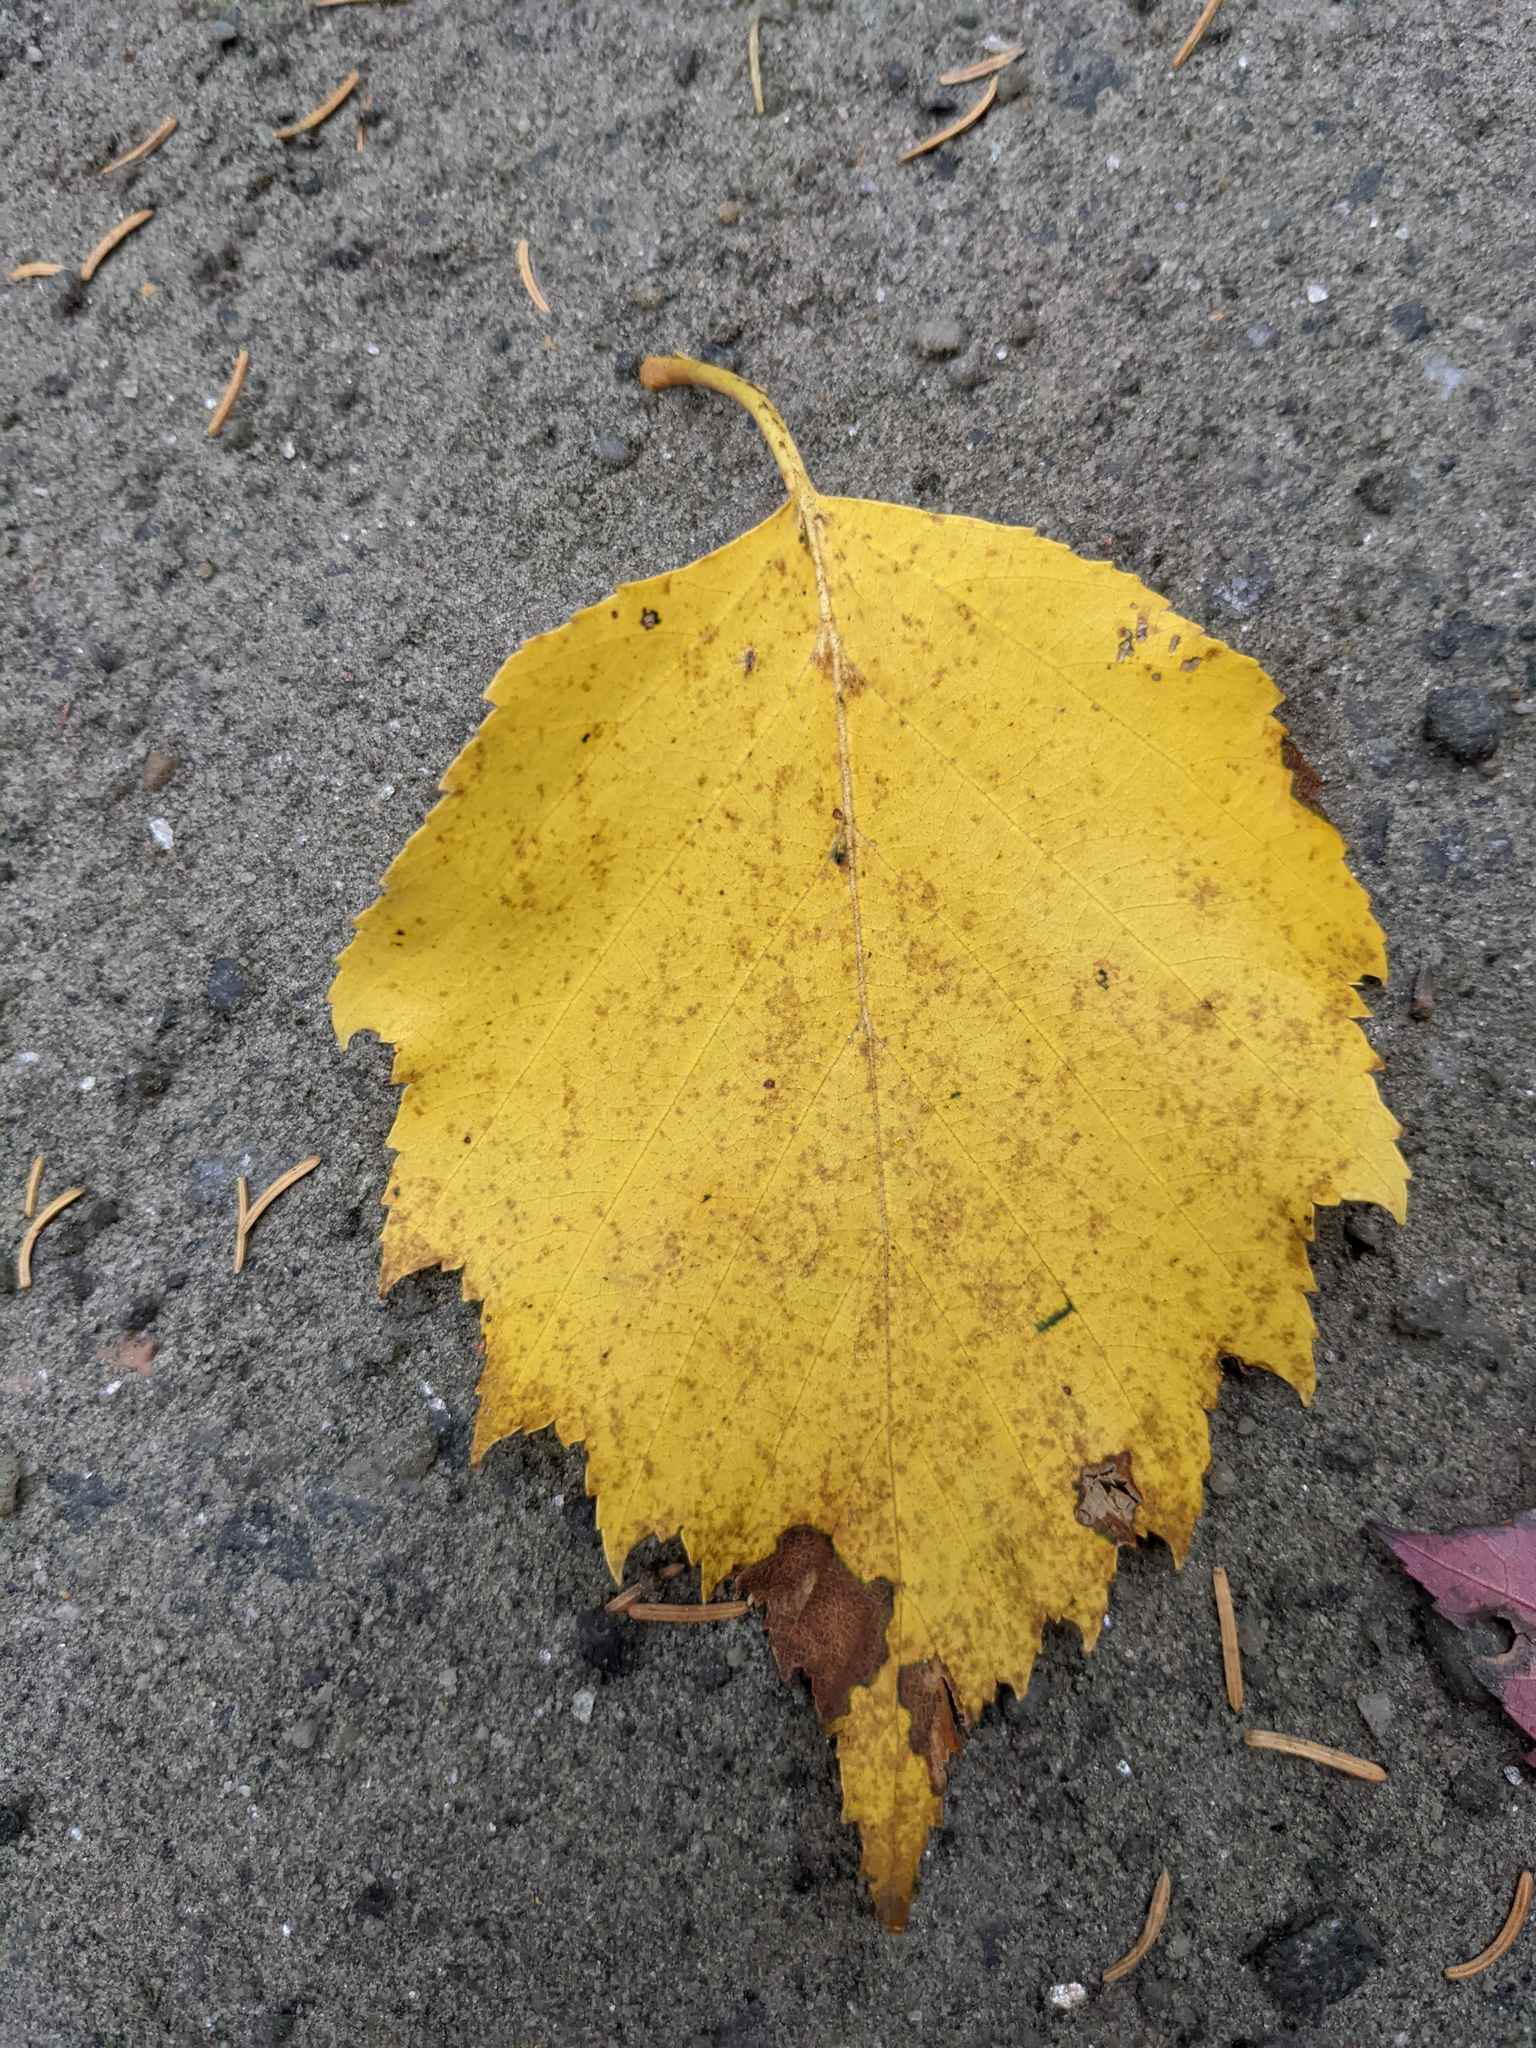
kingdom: Plantae
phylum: Tracheophyta
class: Magnoliopsida
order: Malpighiales
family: Salicaceae
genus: Populus
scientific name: Populus grandidentata
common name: Bigtooth aspen
